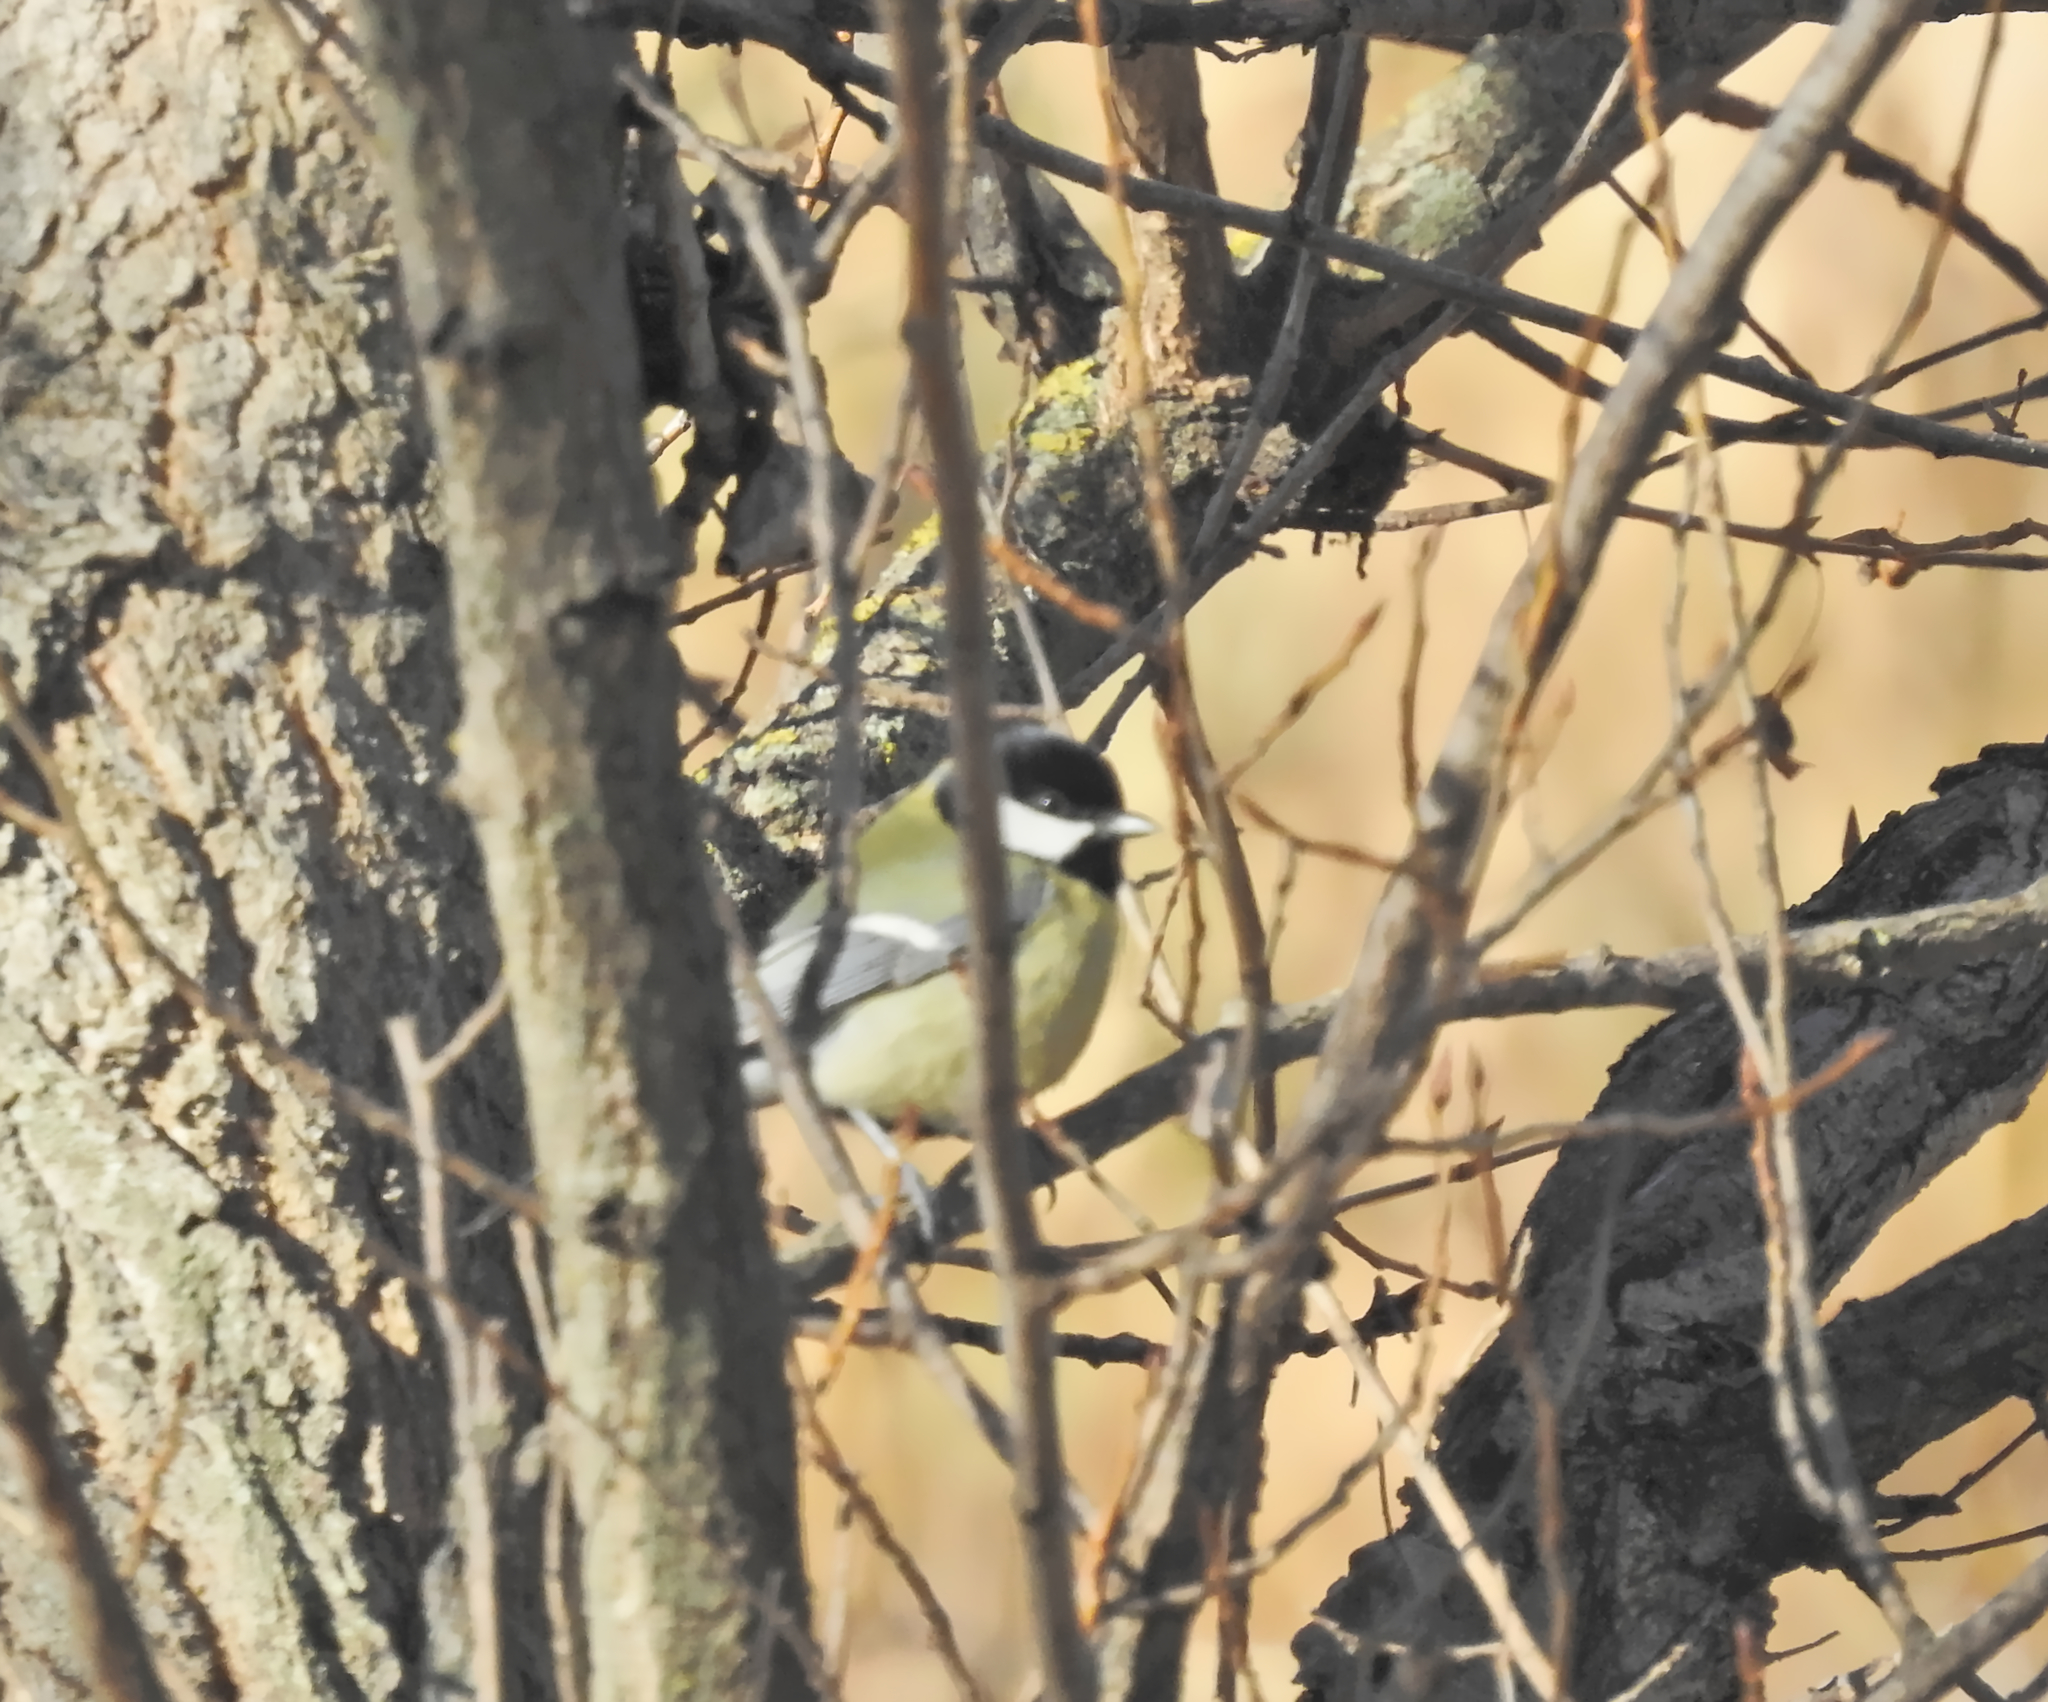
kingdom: Animalia
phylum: Chordata
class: Aves
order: Passeriformes
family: Paridae
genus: Parus
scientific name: Parus major
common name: Great tit
